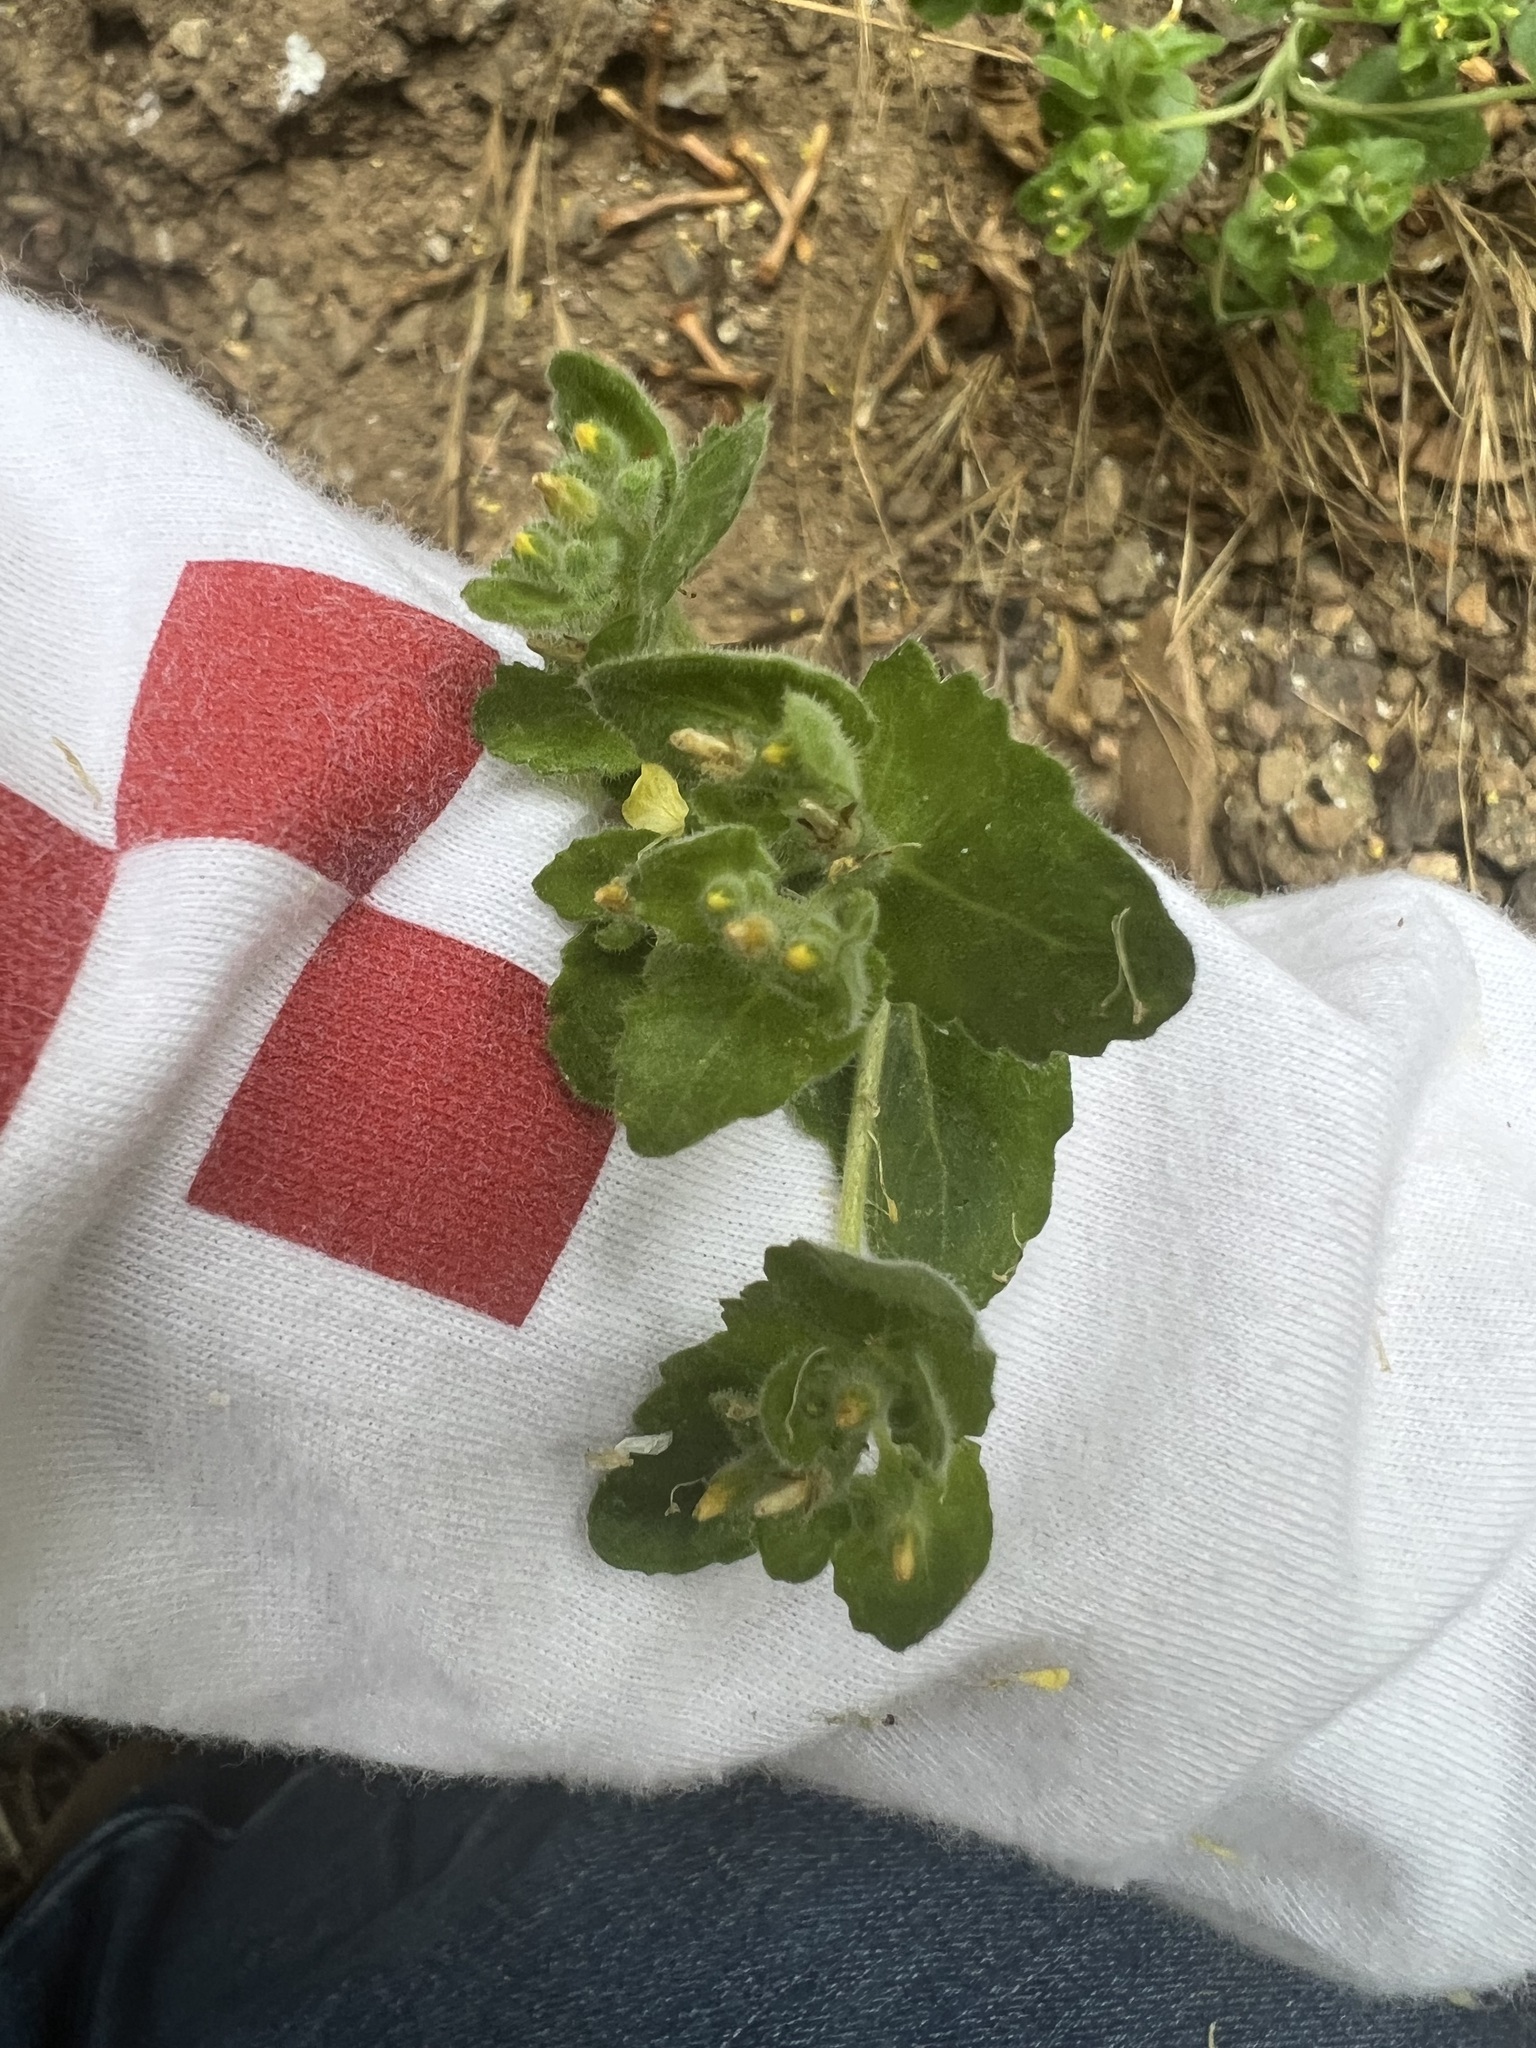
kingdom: Plantae
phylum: Tracheophyta
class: Magnoliopsida
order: Cornales
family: Loasaceae
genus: Mentzelia
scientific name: Mentzelia micrantha
